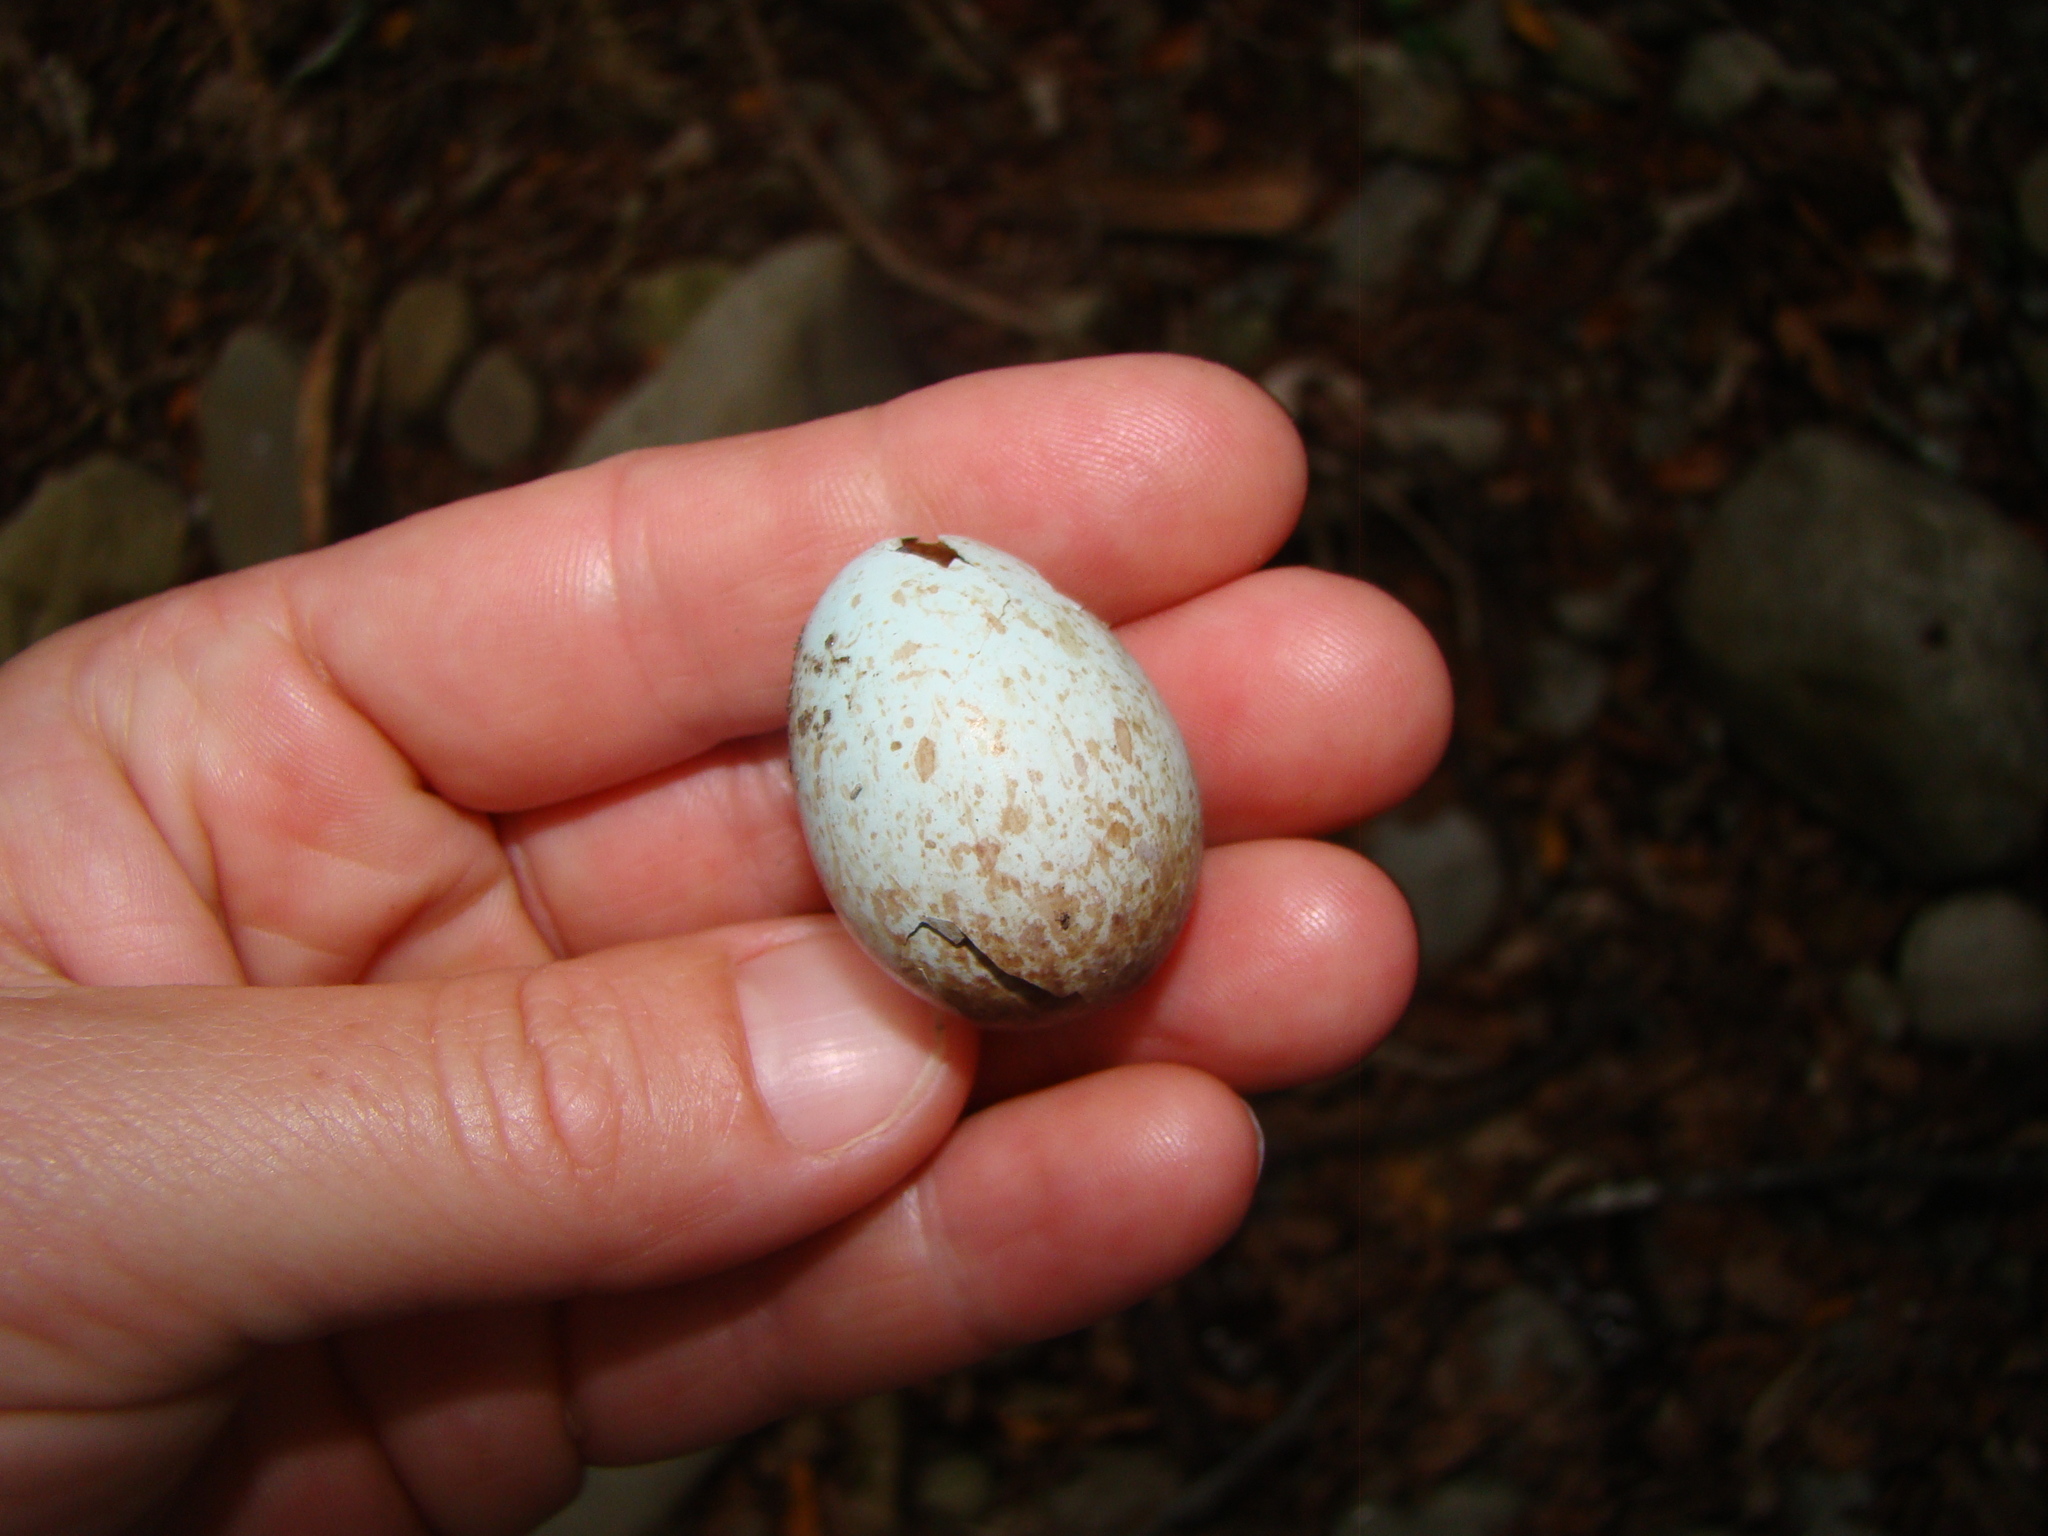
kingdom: Animalia
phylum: Chordata
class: Aves
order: Passeriformes
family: Turdidae
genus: Turdus
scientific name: Turdus merula
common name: Common blackbird
